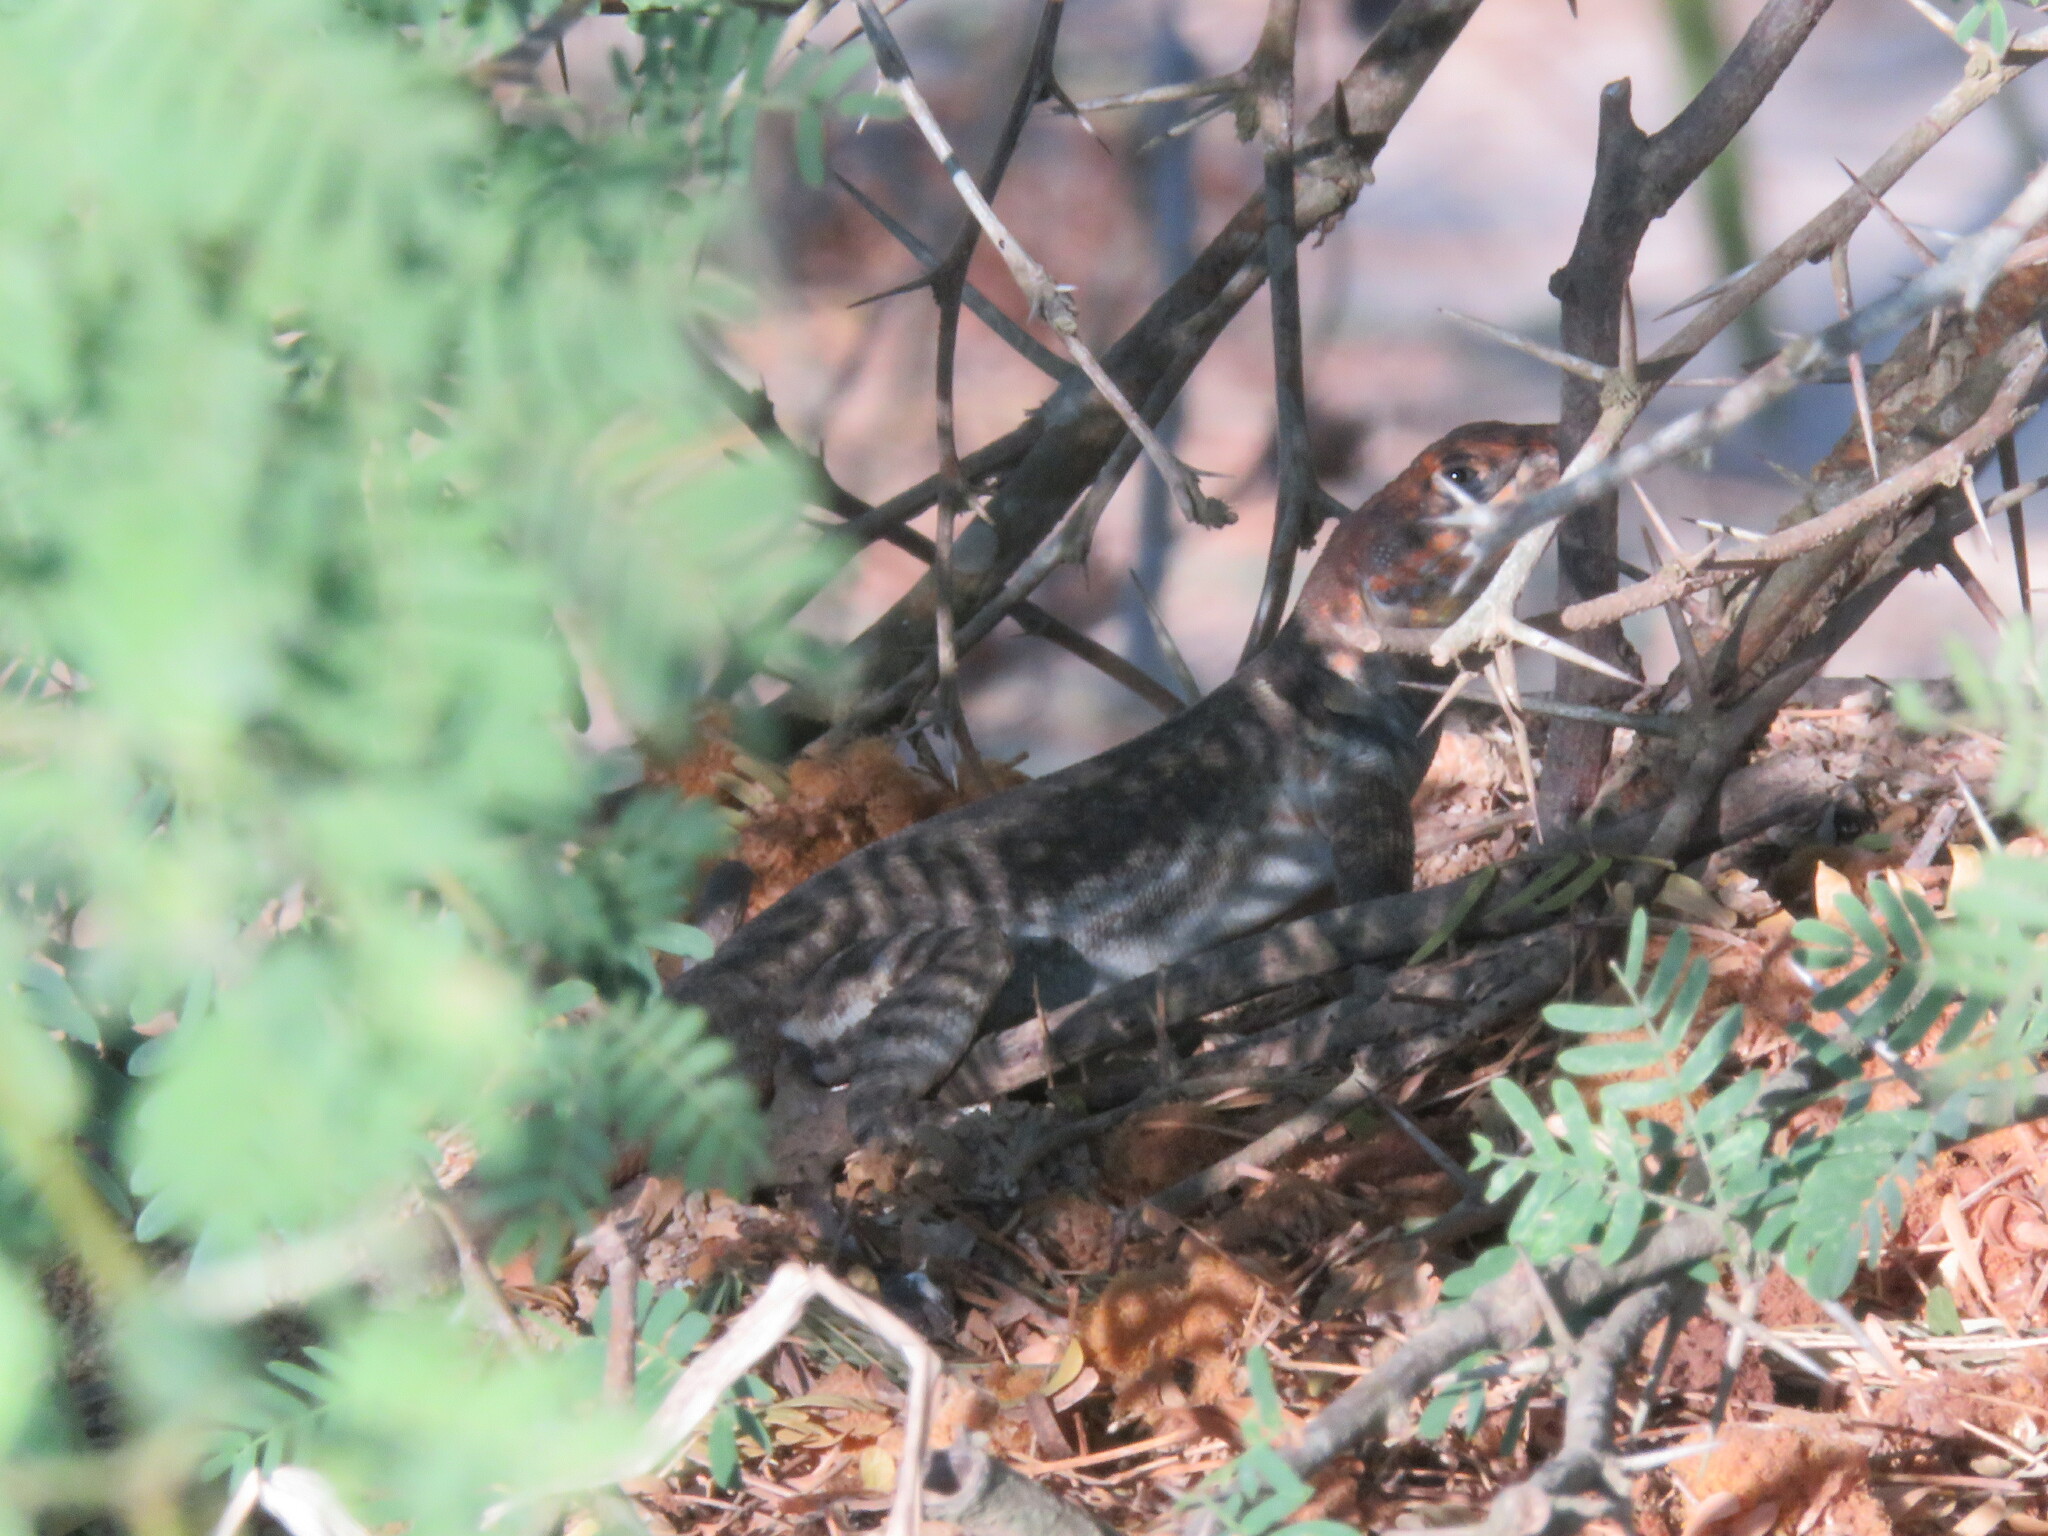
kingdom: Animalia
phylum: Chordata
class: Squamata
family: Tropiduridae
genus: Tropidurus
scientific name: Tropidurus etheridgei
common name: Etheridge's lava lizard
